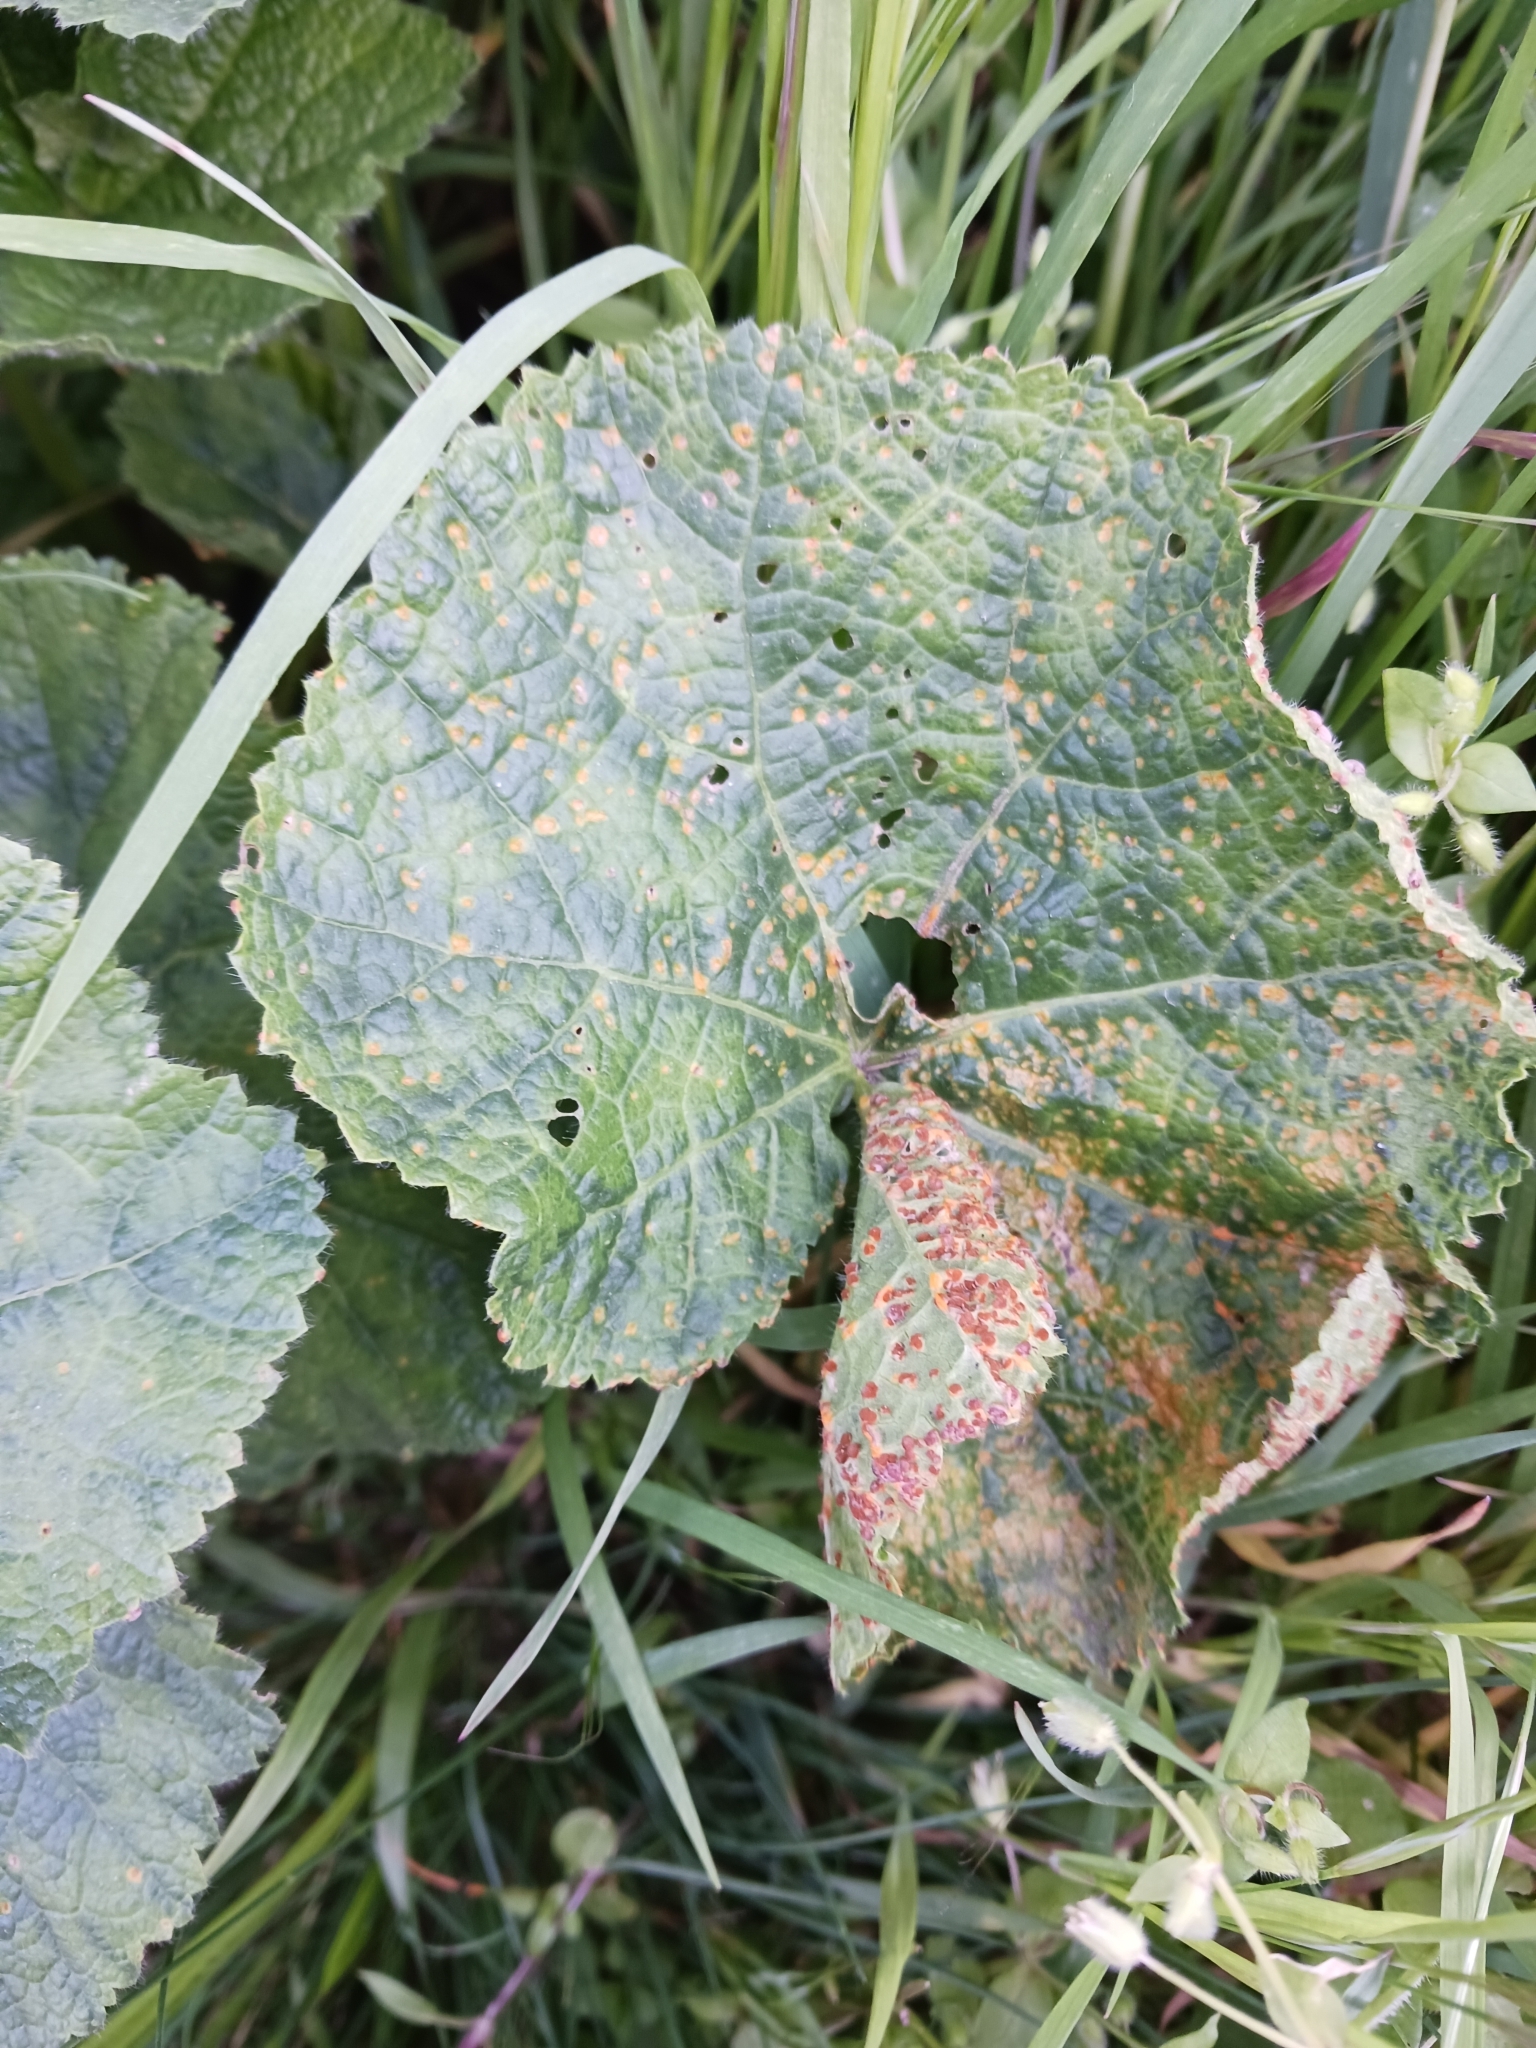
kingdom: Fungi
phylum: Basidiomycota
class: Pucciniomycetes
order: Pucciniales
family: Pucciniaceae
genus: Puccinia
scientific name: Puccinia malvacearum
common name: Hollyhock rust
